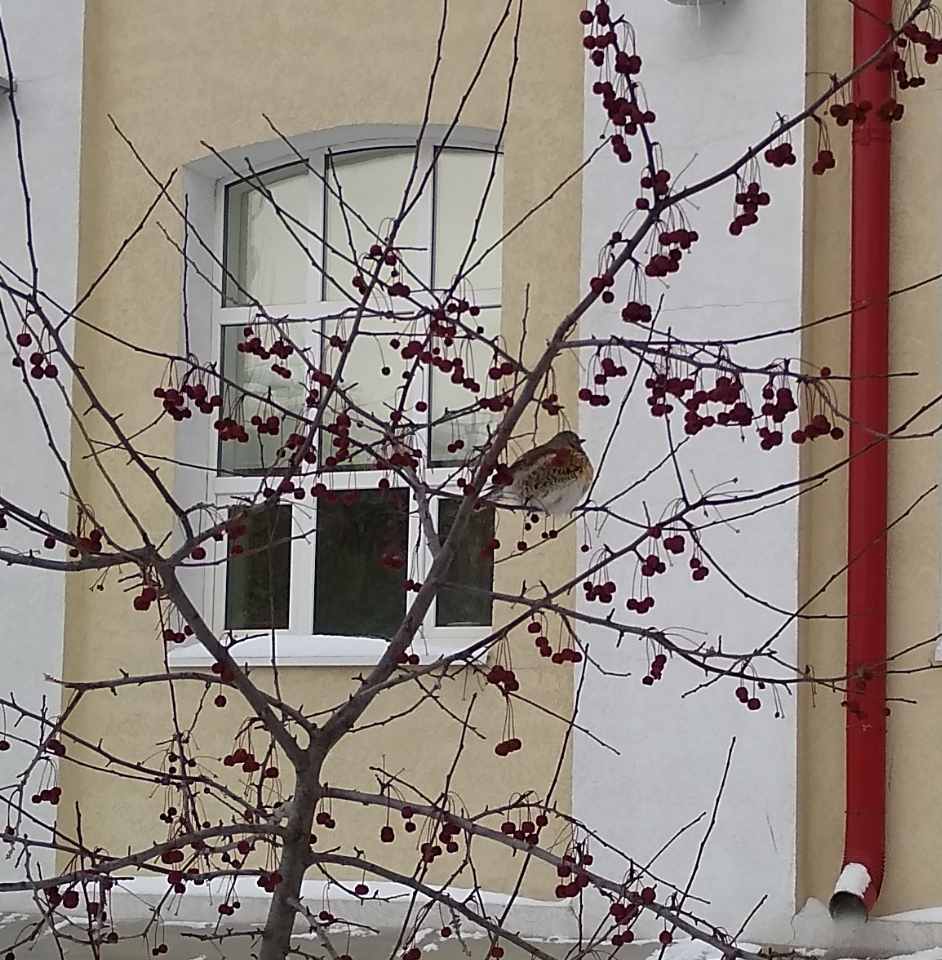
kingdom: Animalia
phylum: Chordata
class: Aves
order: Passeriformes
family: Turdidae
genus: Turdus
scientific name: Turdus pilaris
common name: Fieldfare
